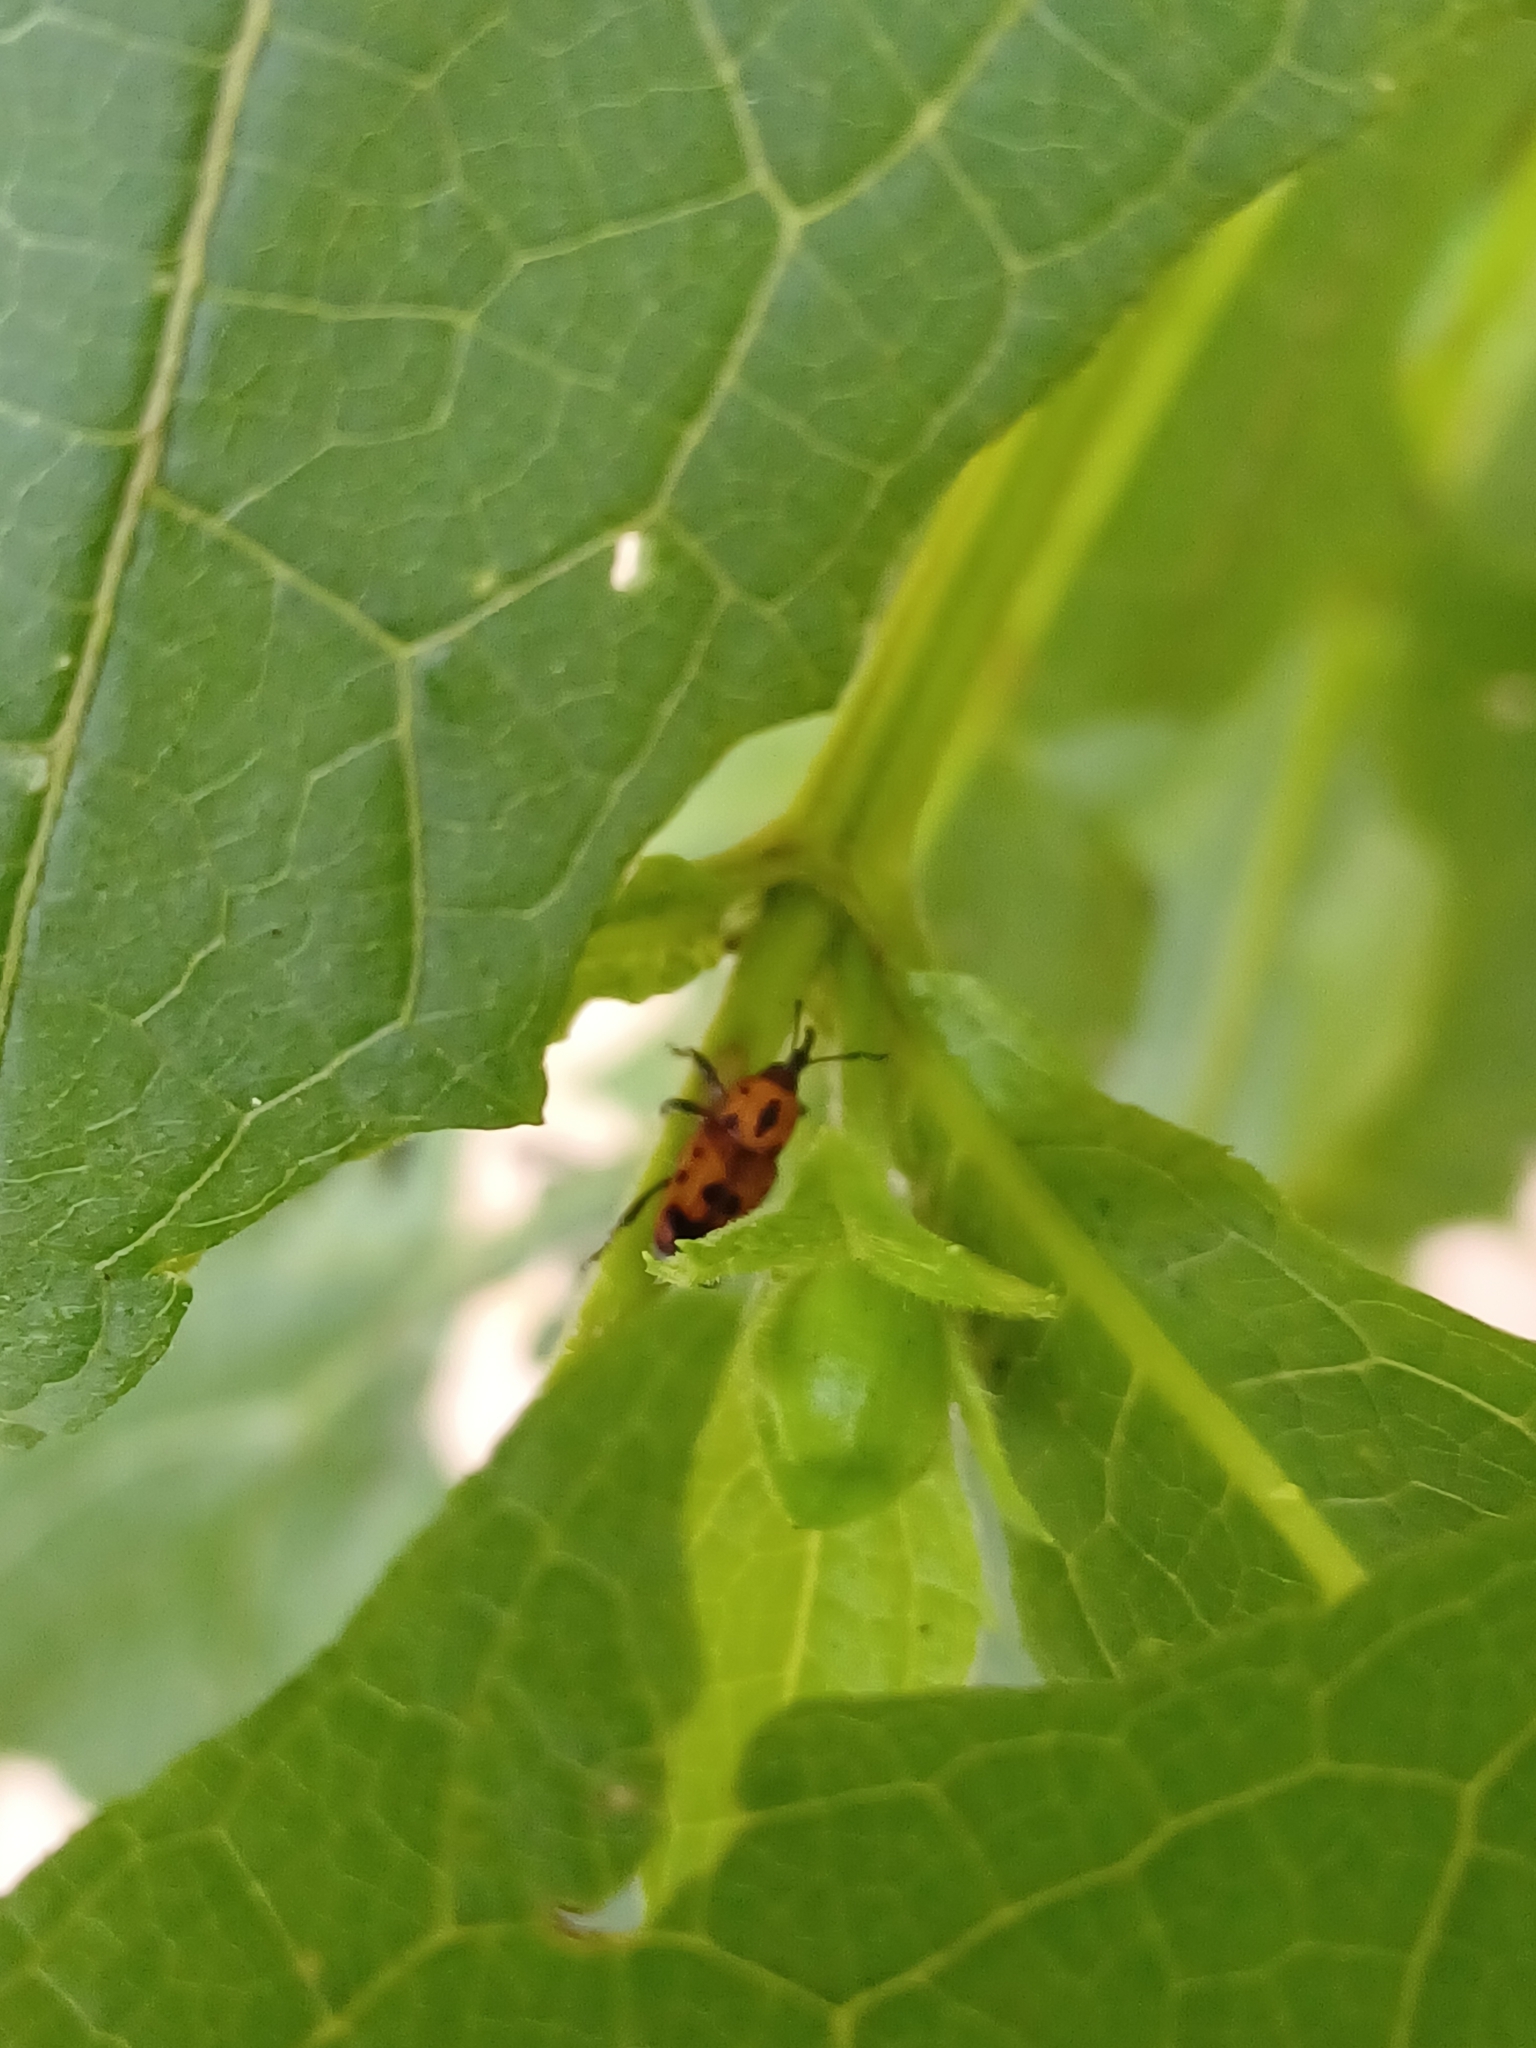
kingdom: Animalia
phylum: Arthropoda
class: Insecta
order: Coleoptera
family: Dryophthoridae
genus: Rhodobaenus
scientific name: Rhodobaenus quinquepunctatus
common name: Cocklebur weevil
